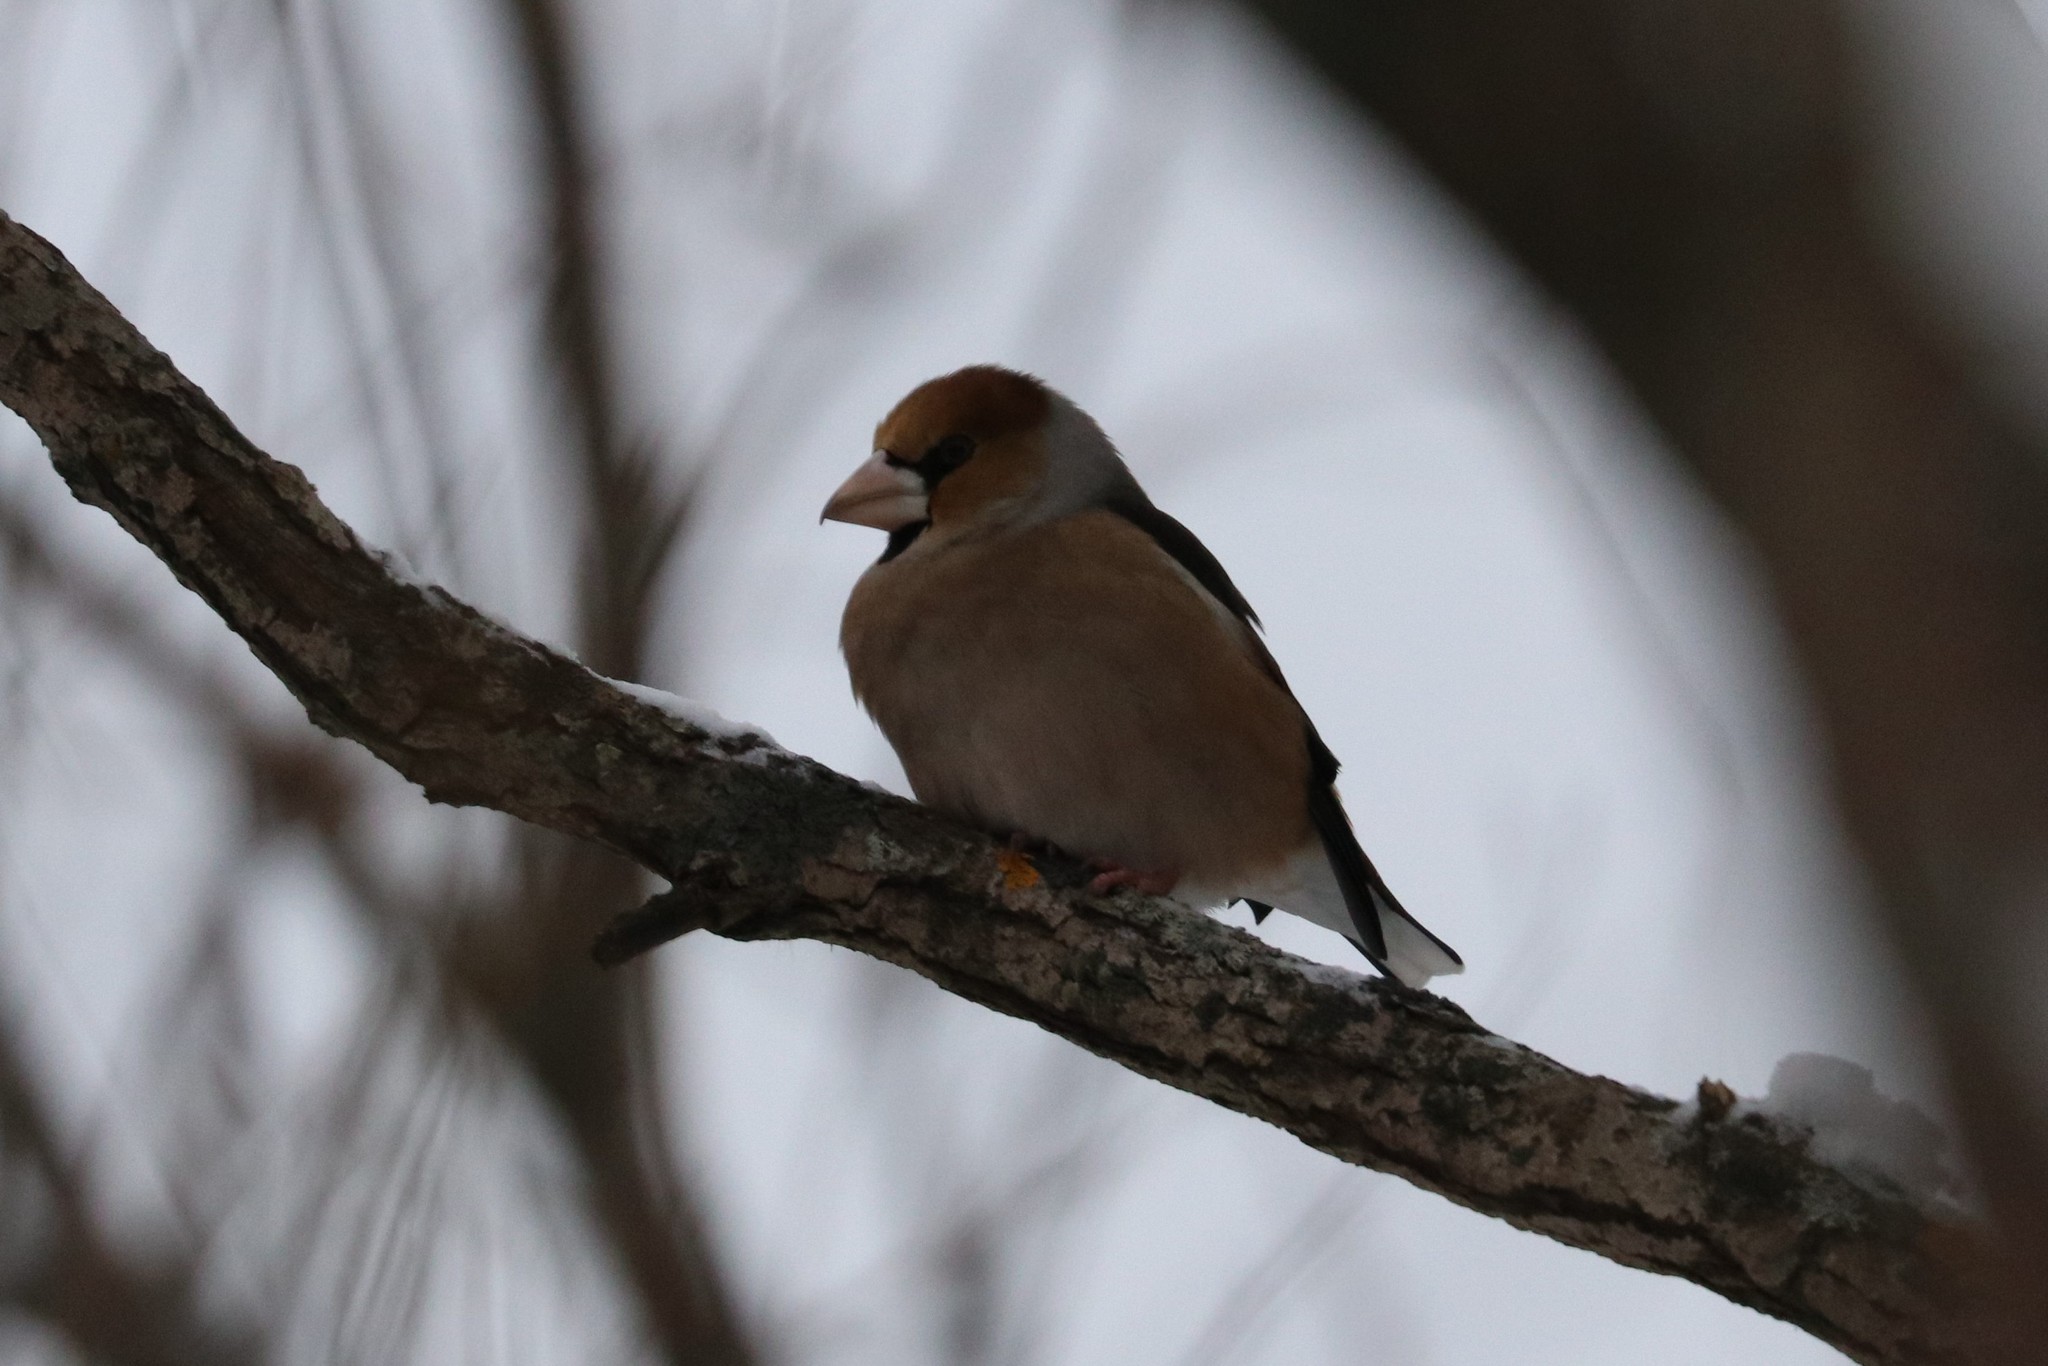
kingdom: Animalia
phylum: Chordata
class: Aves
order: Passeriformes
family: Fringillidae
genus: Coccothraustes
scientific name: Coccothraustes coccothraustes
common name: Hawfinch
